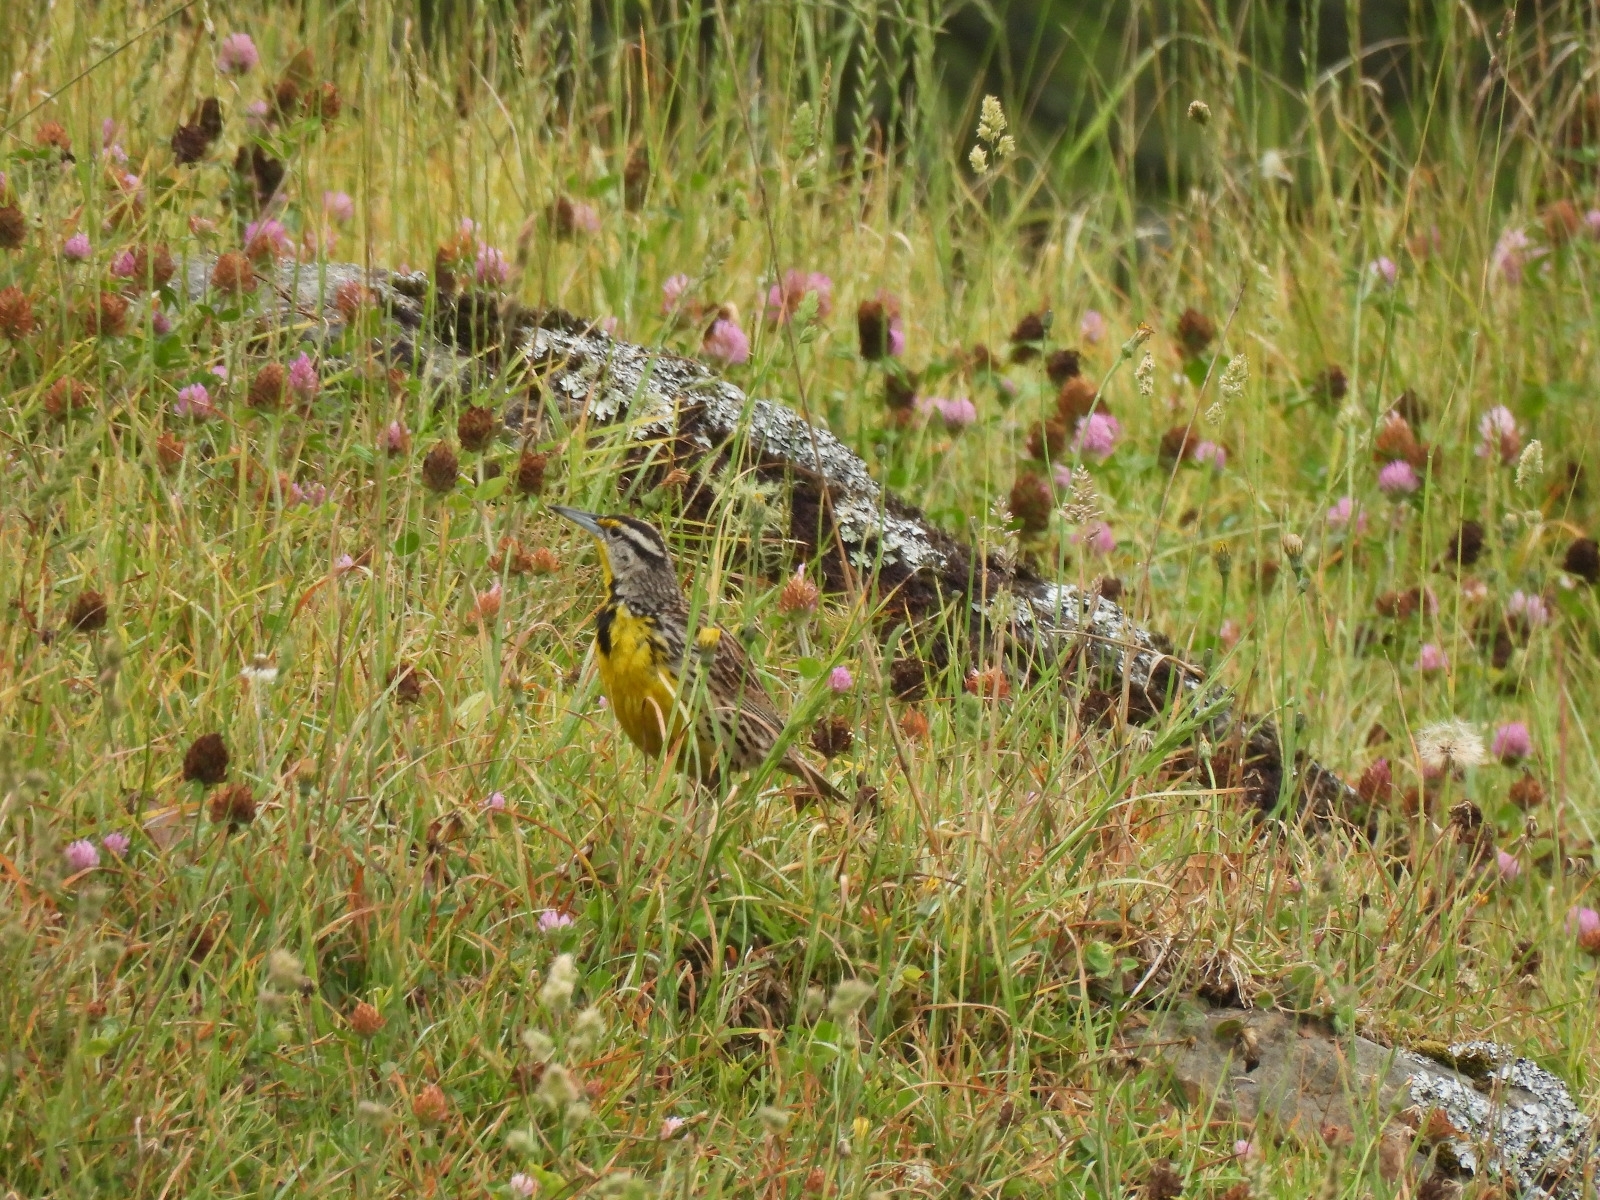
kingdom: Animalia
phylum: Chordata
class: Aves
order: Passeriformes
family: Icteridae
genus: Sturnella
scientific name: Sturnella magna
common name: Eastern meadowlark
